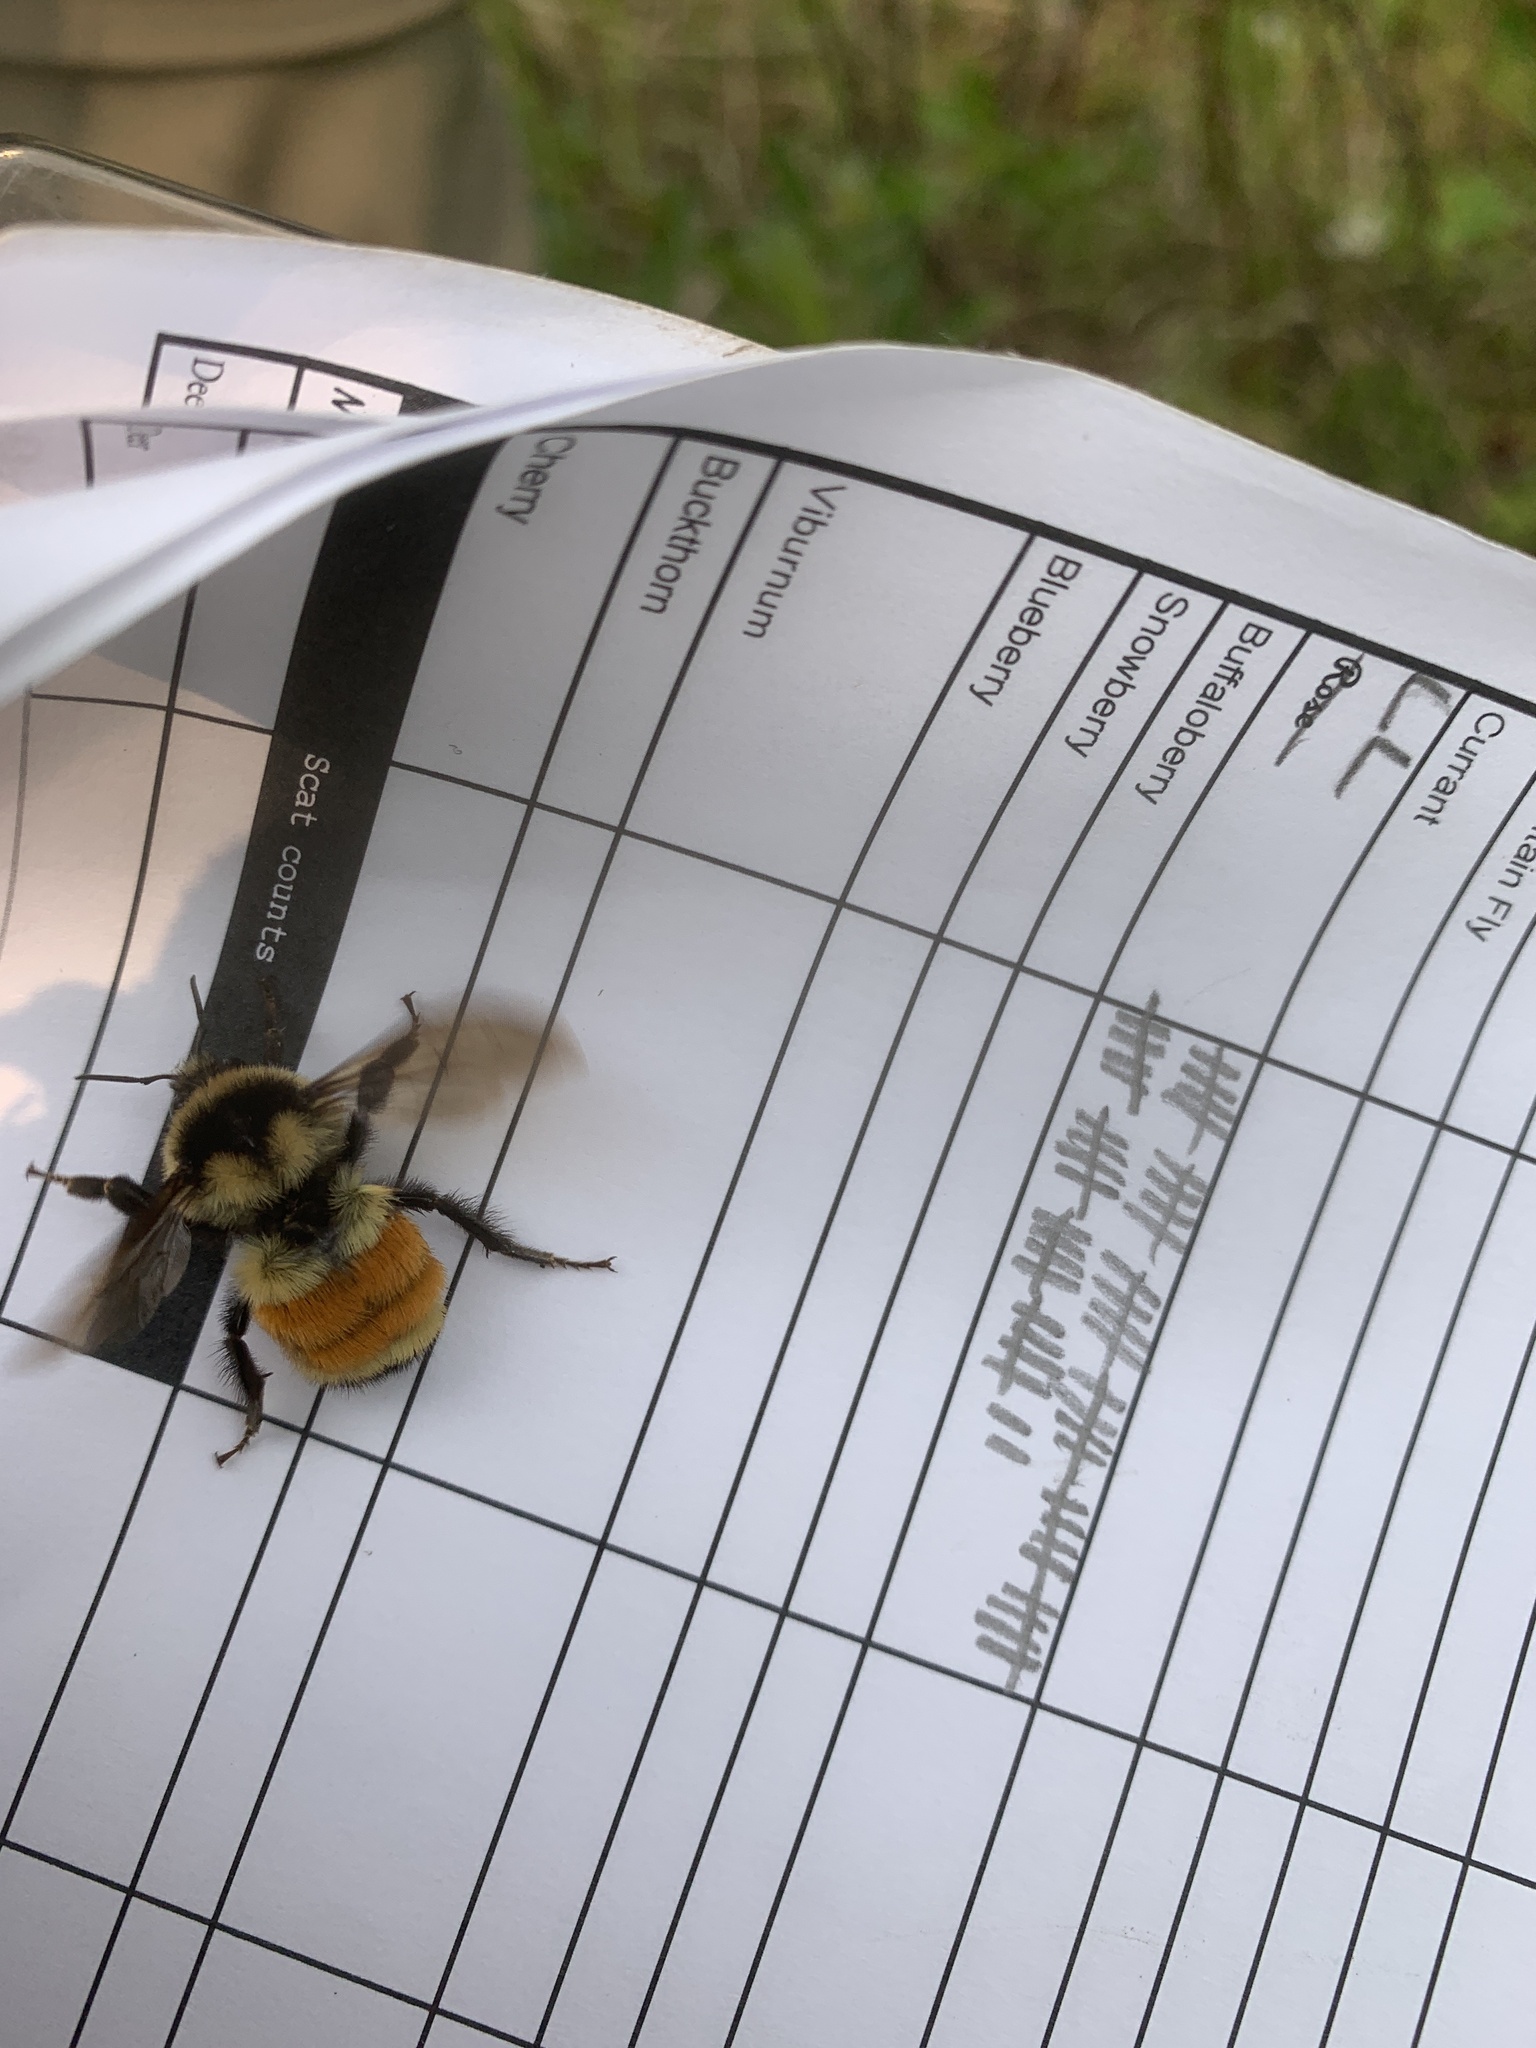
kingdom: Animalia
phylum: Arthropoda
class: Insecta
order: Hymenoptera
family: Apidae
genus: Bombus
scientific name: Bombus ternarius
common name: Tri-colored bumble bee
